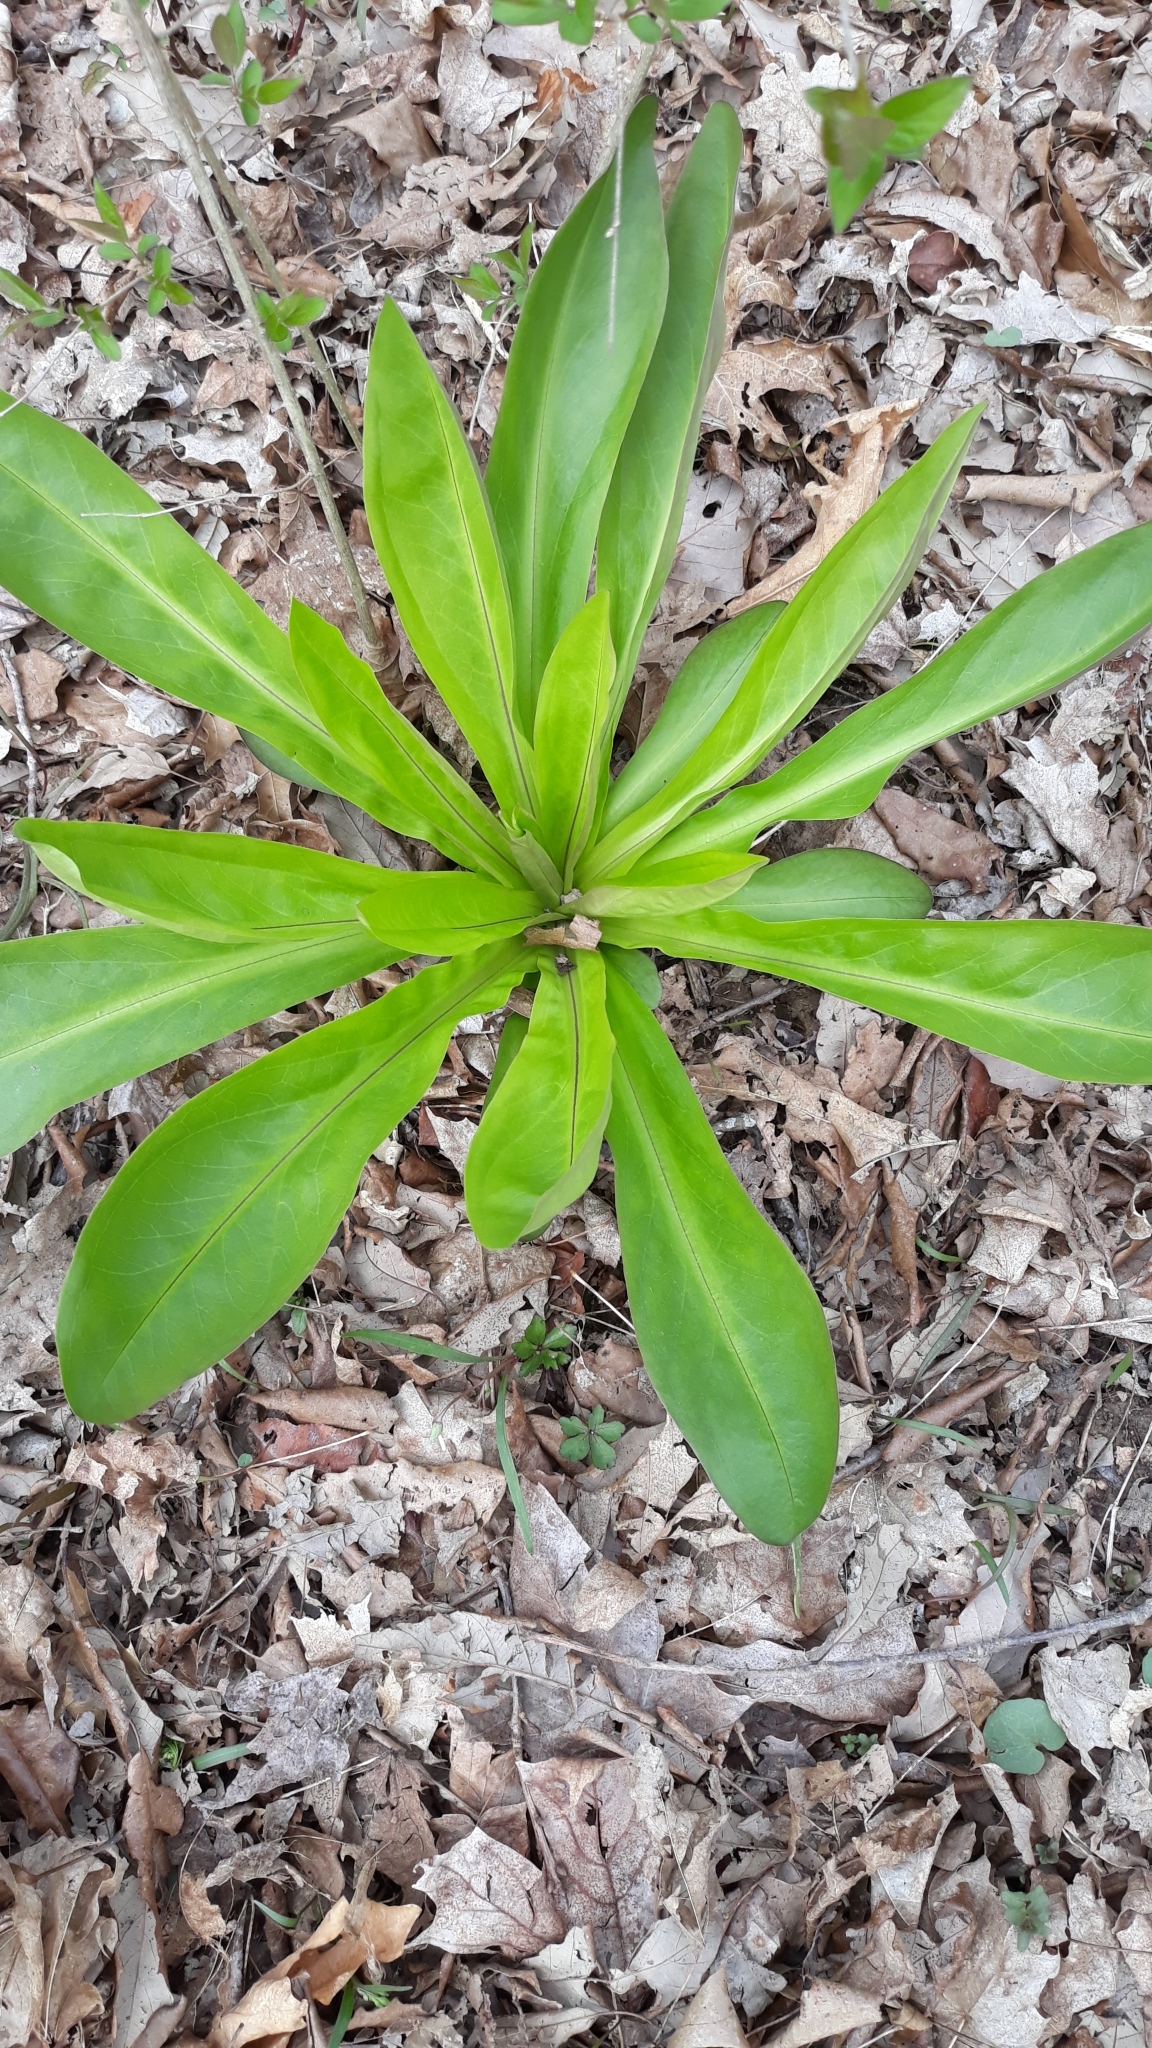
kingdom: Plantae
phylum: Tracheophyta
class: Magnoliopsida
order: Gentianales
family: Gentianaceae
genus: Frasera
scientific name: Frasera caroliniensis
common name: American columbo
